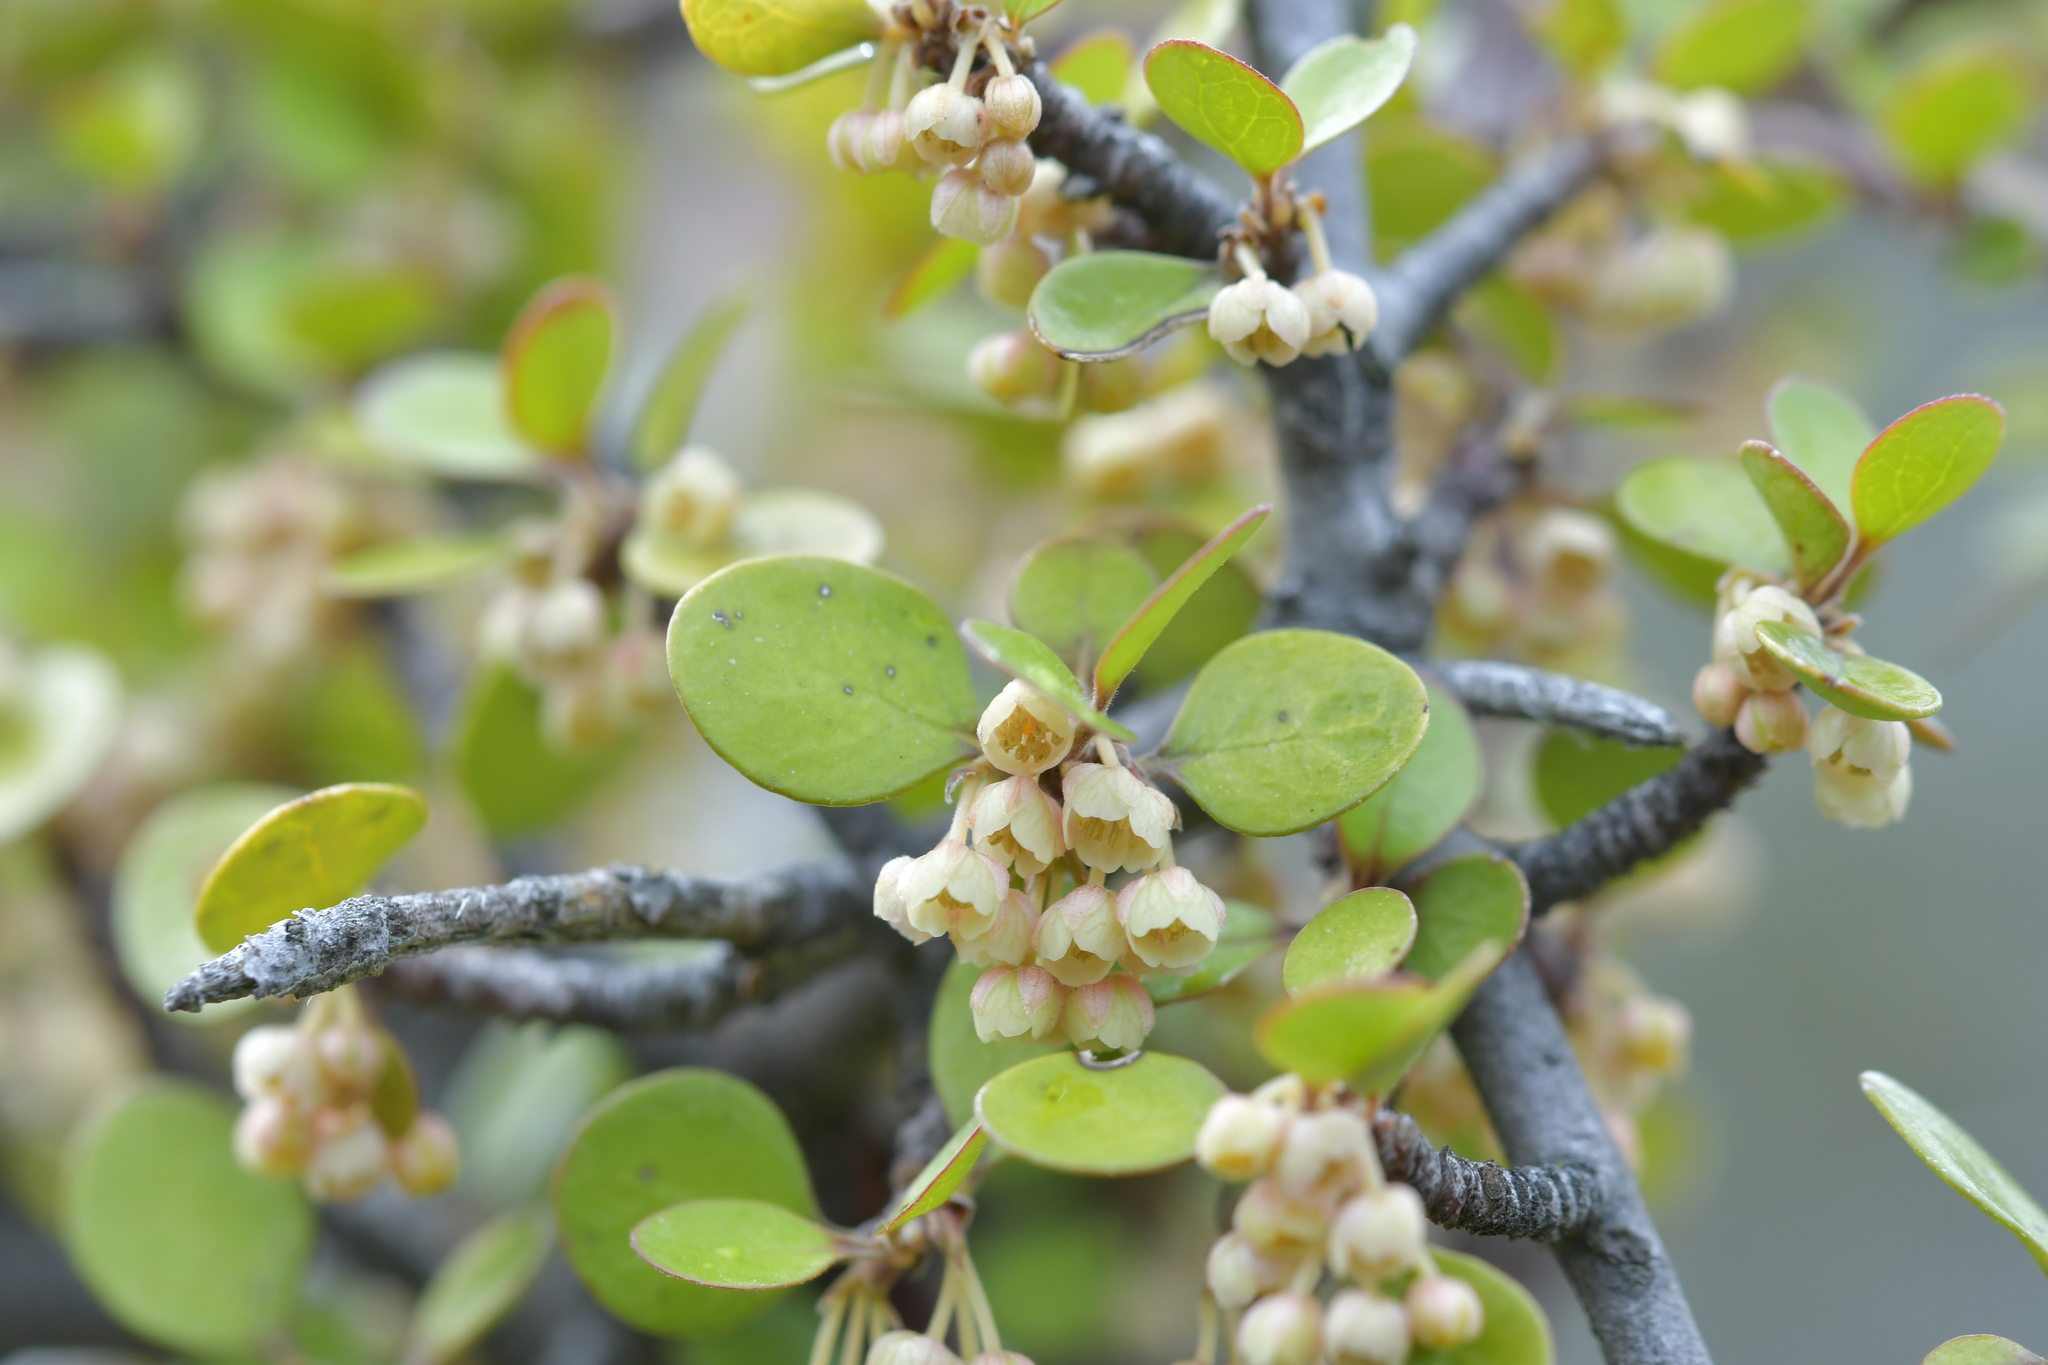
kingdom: Plantae
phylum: Tracheophyta
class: Magnoliopsida
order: Oxalidales
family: Elaeocarpaceae
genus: Aristotelia
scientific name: Aristotelia fruticosa
